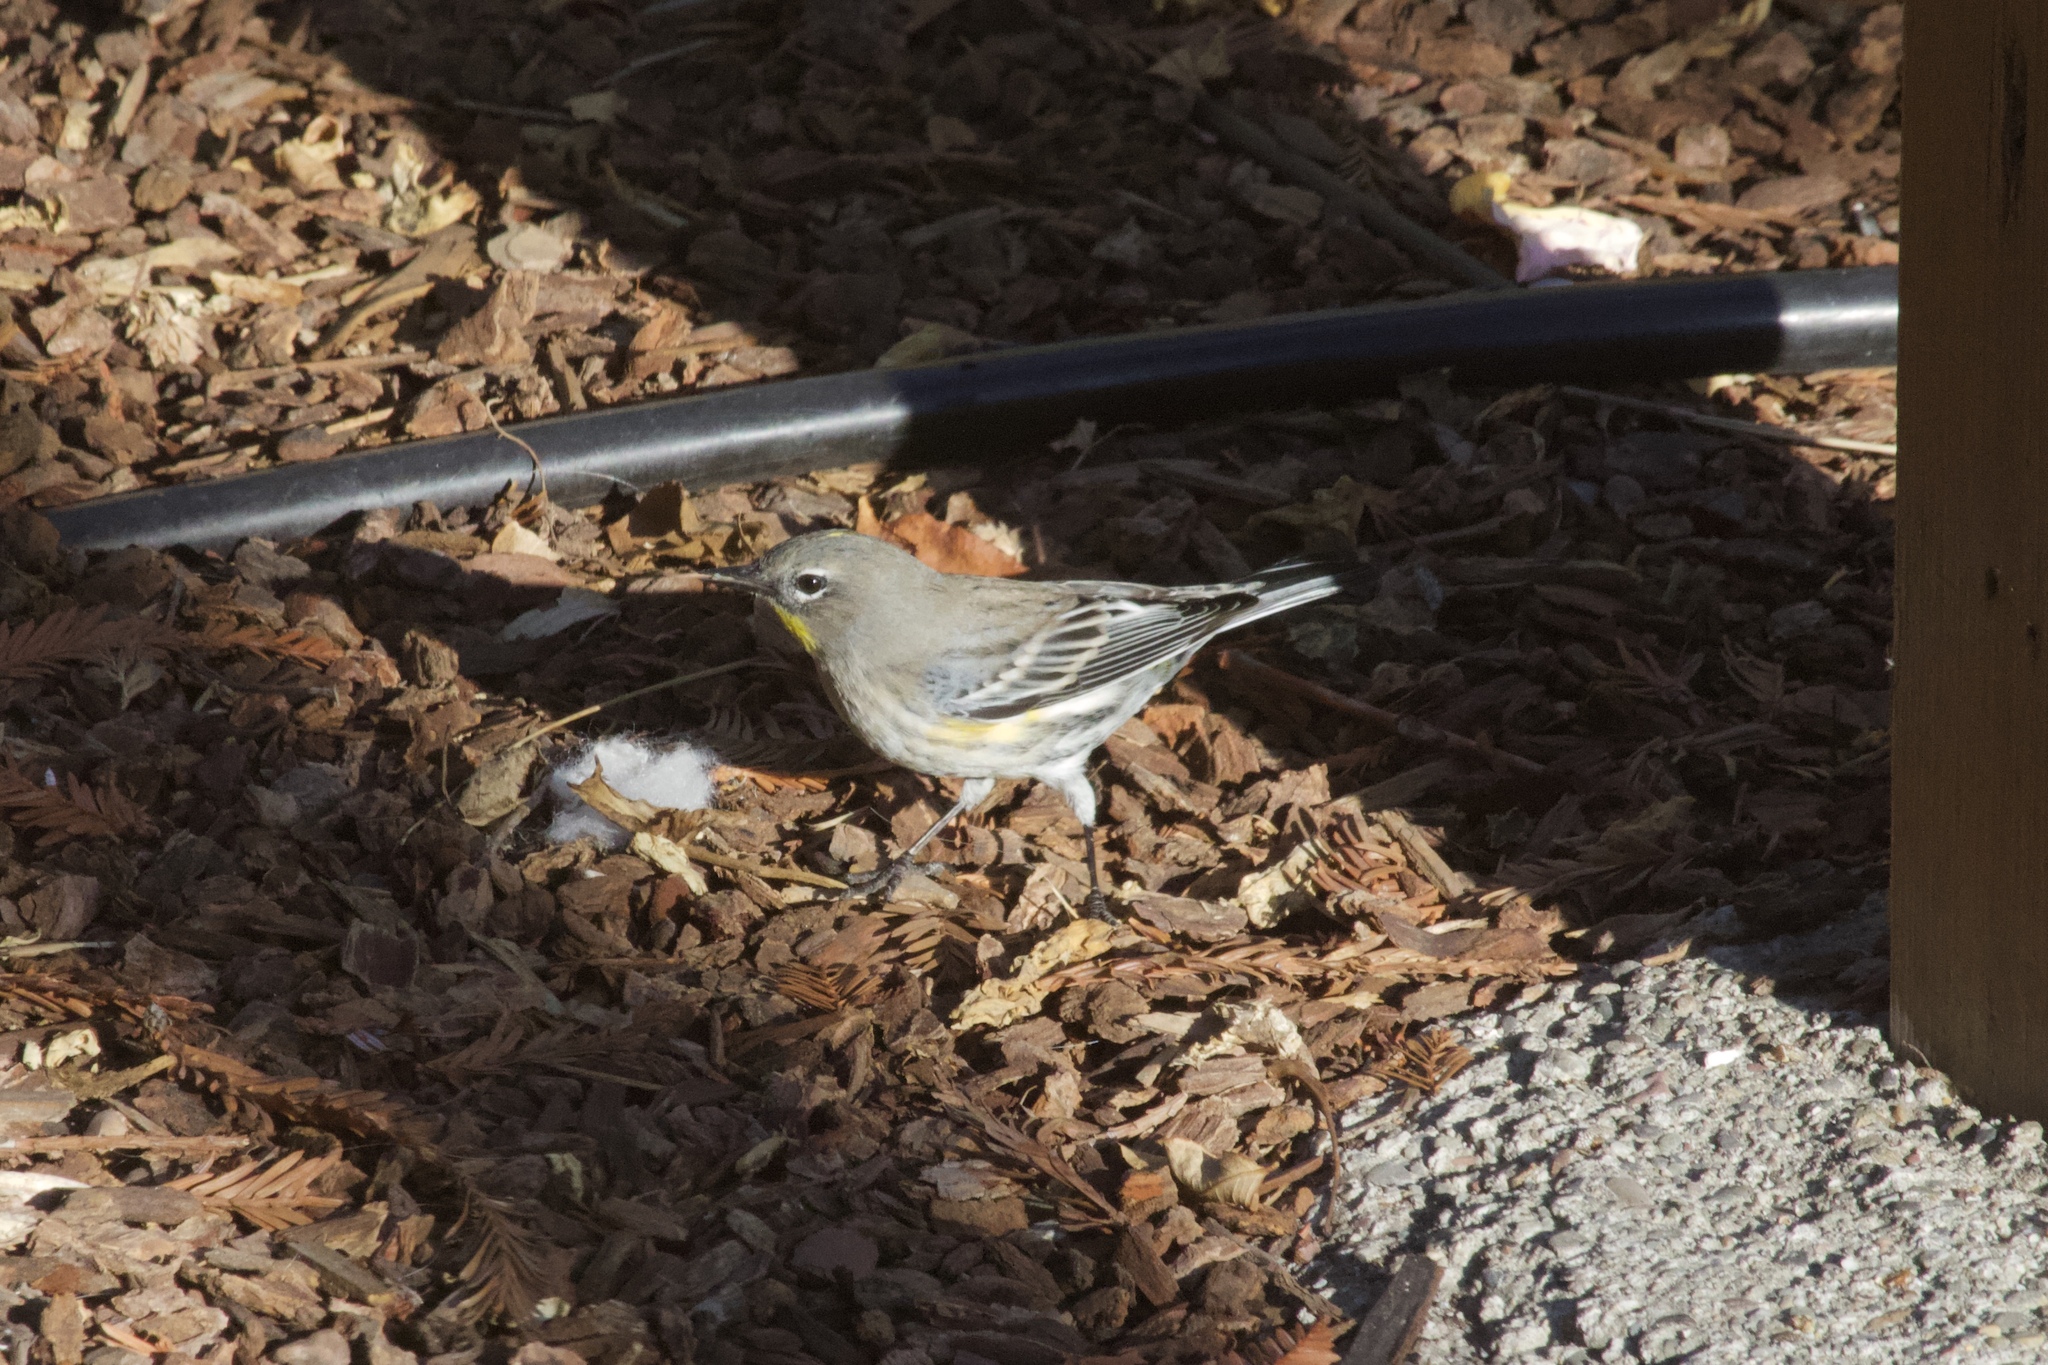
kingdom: Animalia
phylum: Chordata
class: Aves
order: Passeriformes
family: Parulidae
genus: Setophaga
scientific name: Setophaga coronata
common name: Myrtle warbler
